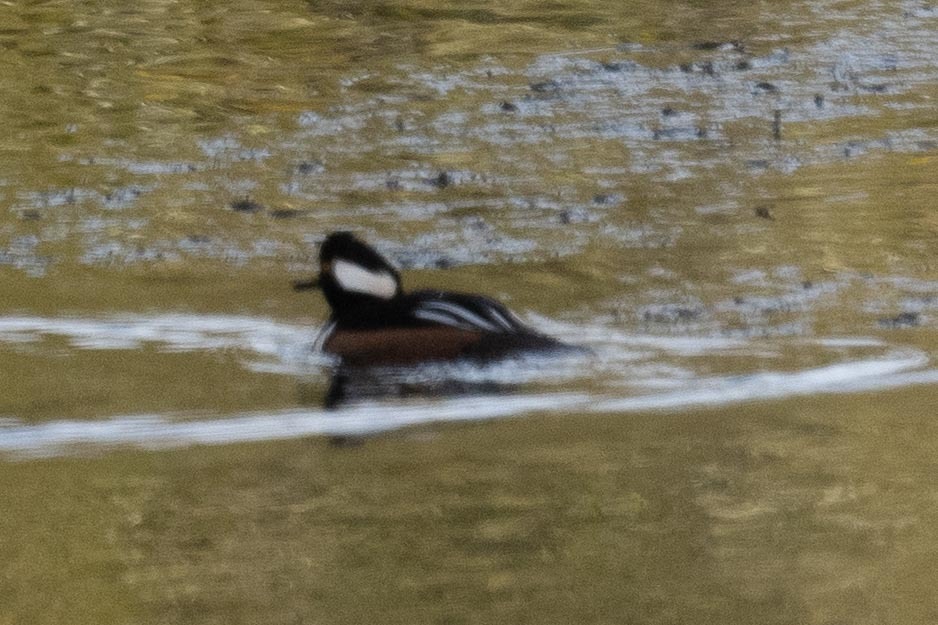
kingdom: Animalia
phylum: Chordata
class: Aves
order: Anseriformes
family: Anatidae
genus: Lophodytes
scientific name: Lophodytes cucullatus
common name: Hooded merganser
